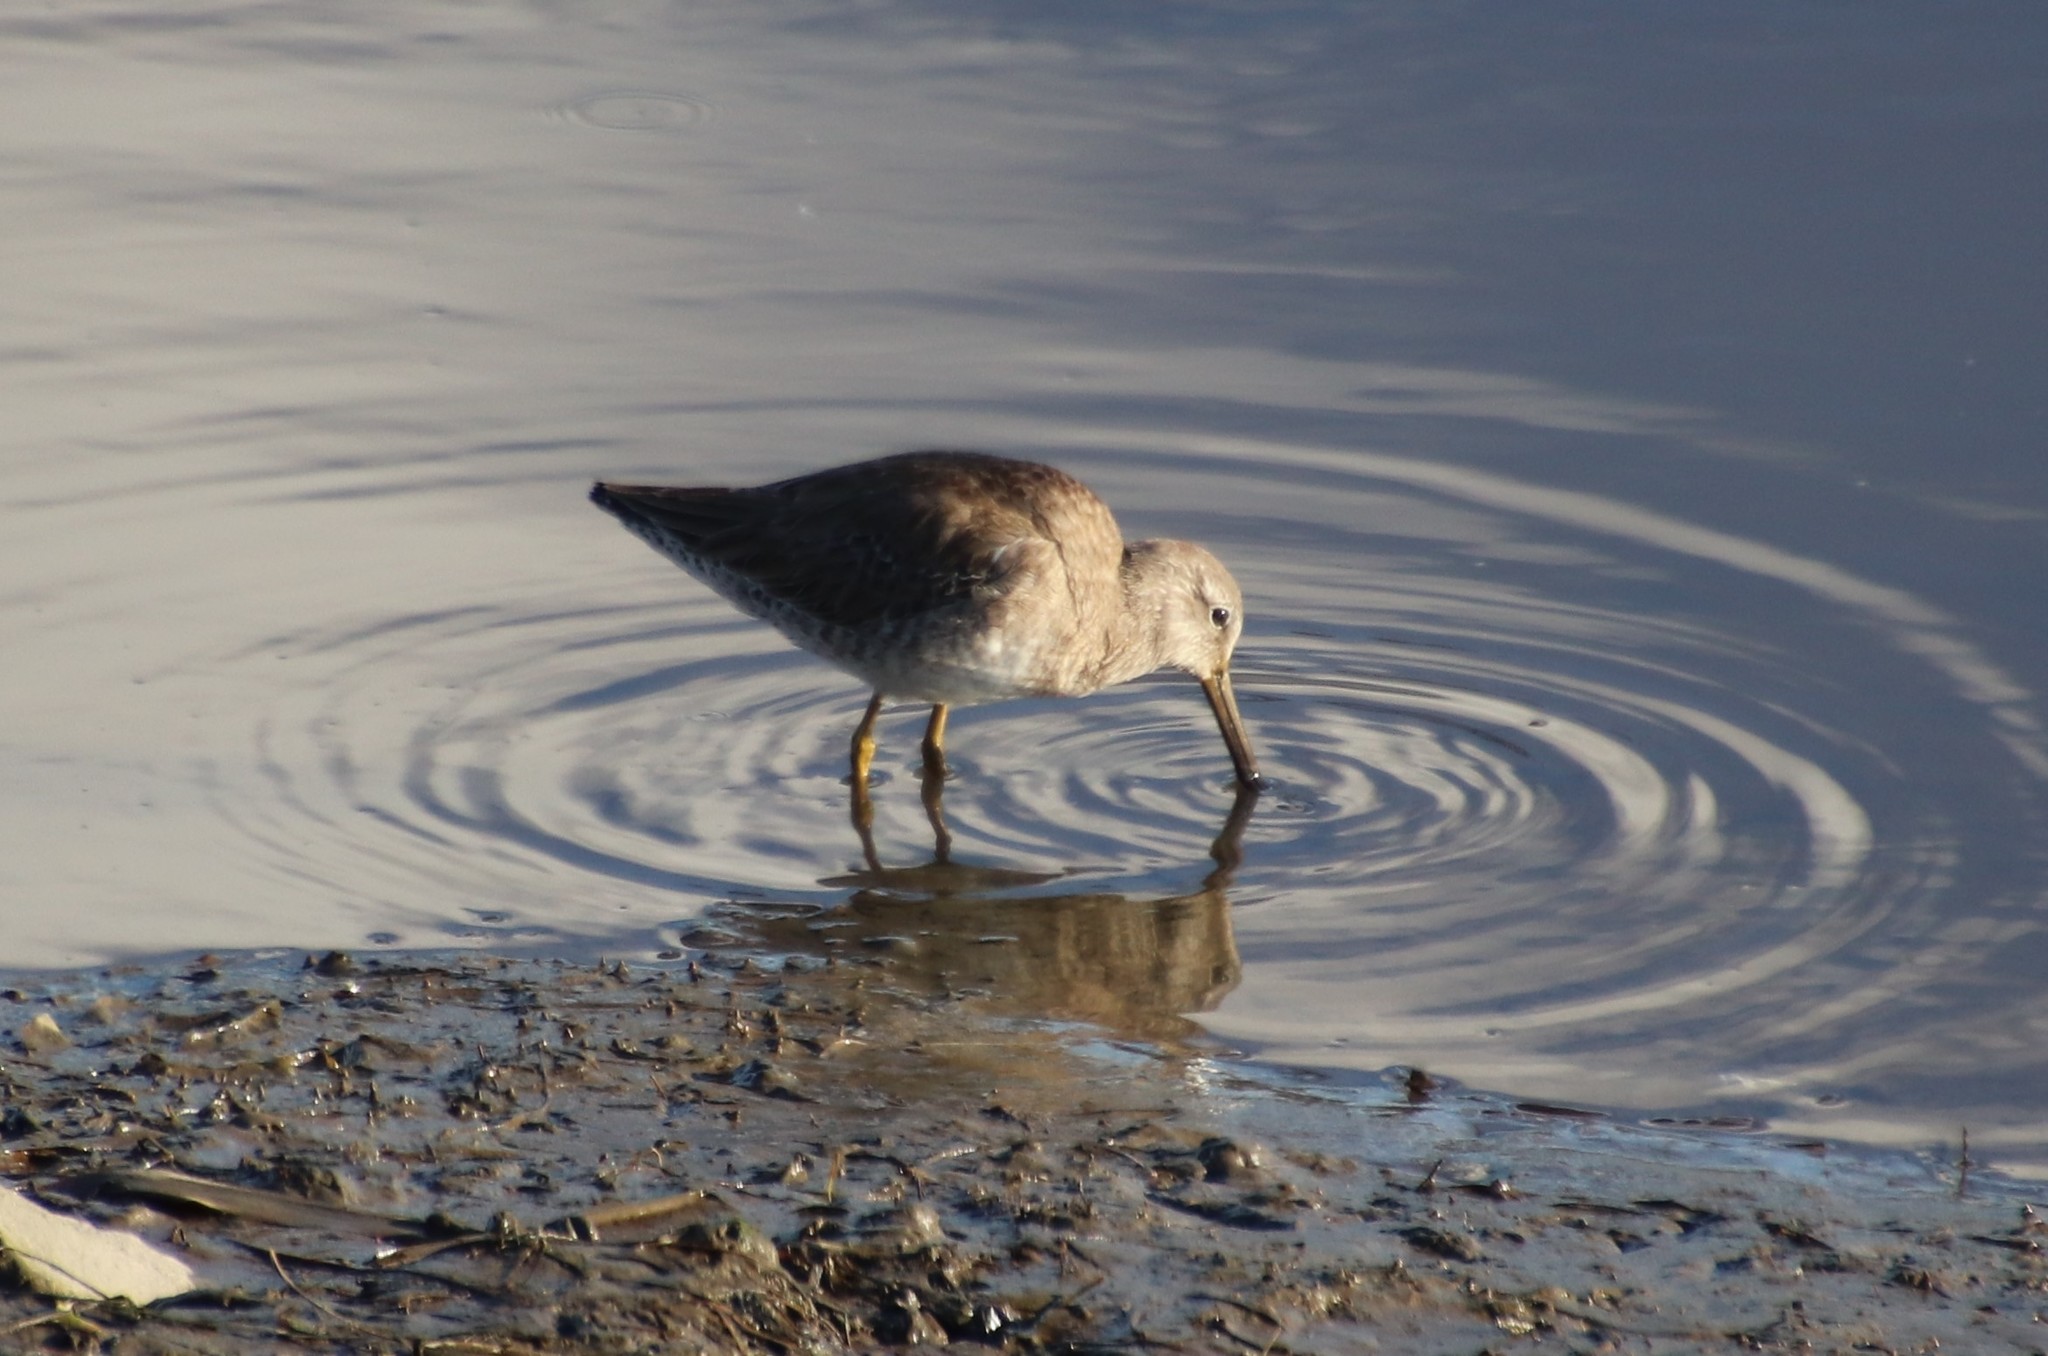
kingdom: Animalia
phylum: Chordata
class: Aves
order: Charadriiformes
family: Scolopacidae
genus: Limnodromus
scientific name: Limnodromus
